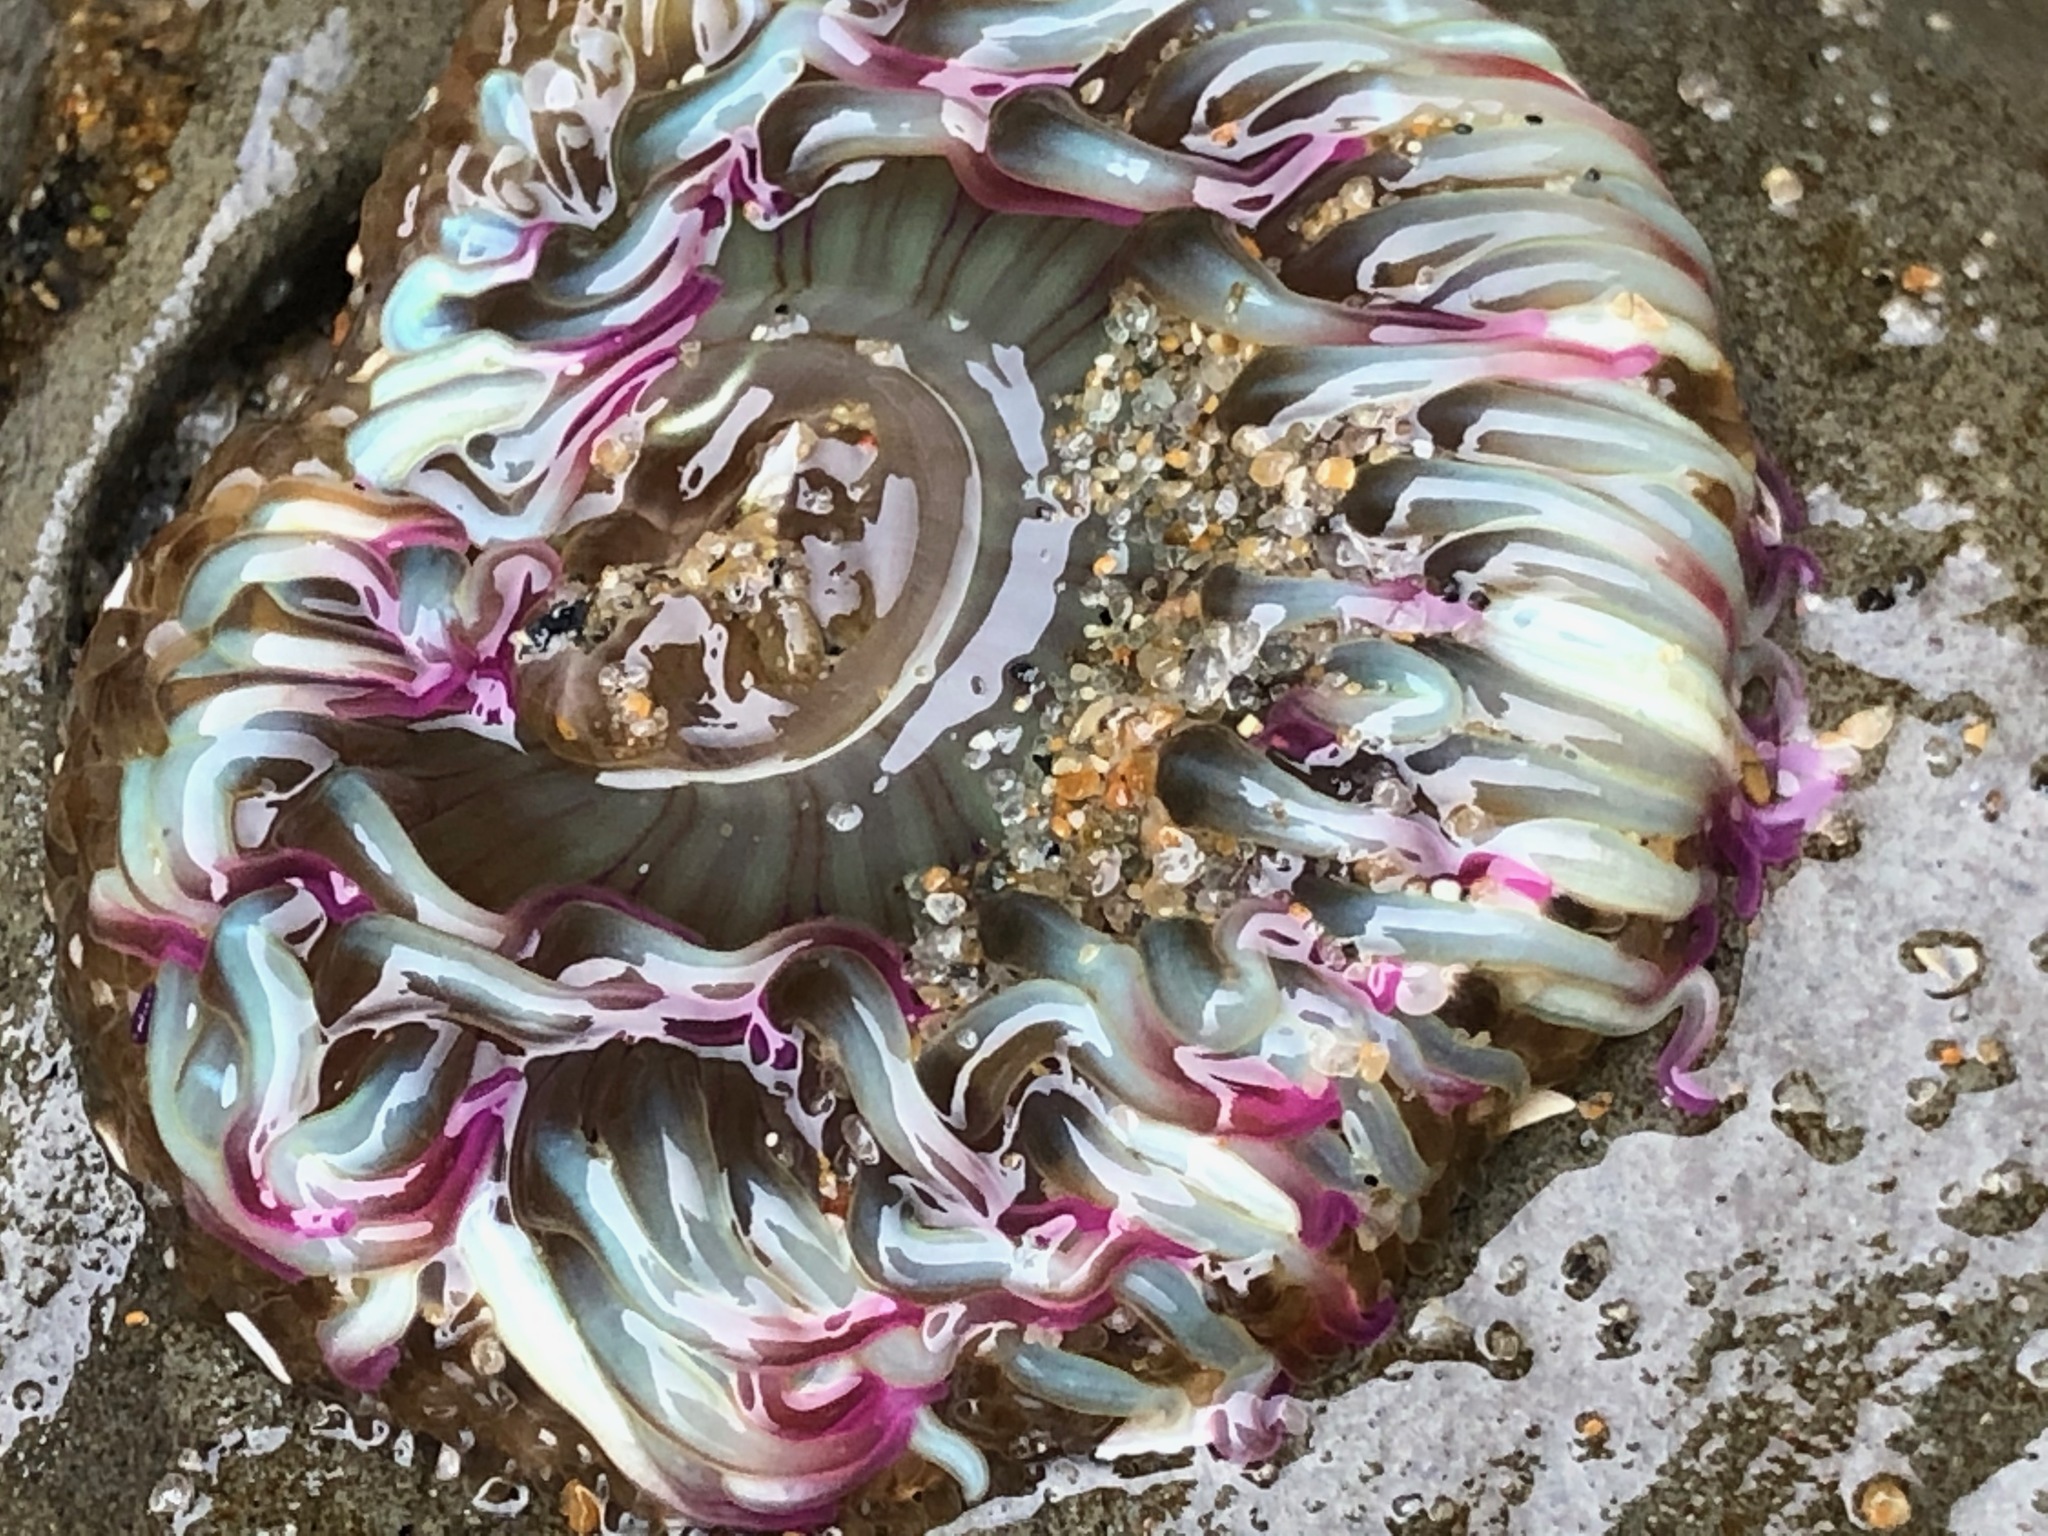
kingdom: Animalia
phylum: Cnidaria
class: Anthozoa
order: Actiniaria
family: Actiniidae
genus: Anthopleura
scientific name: Anthopleura elegantissima
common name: Clonal anemone
